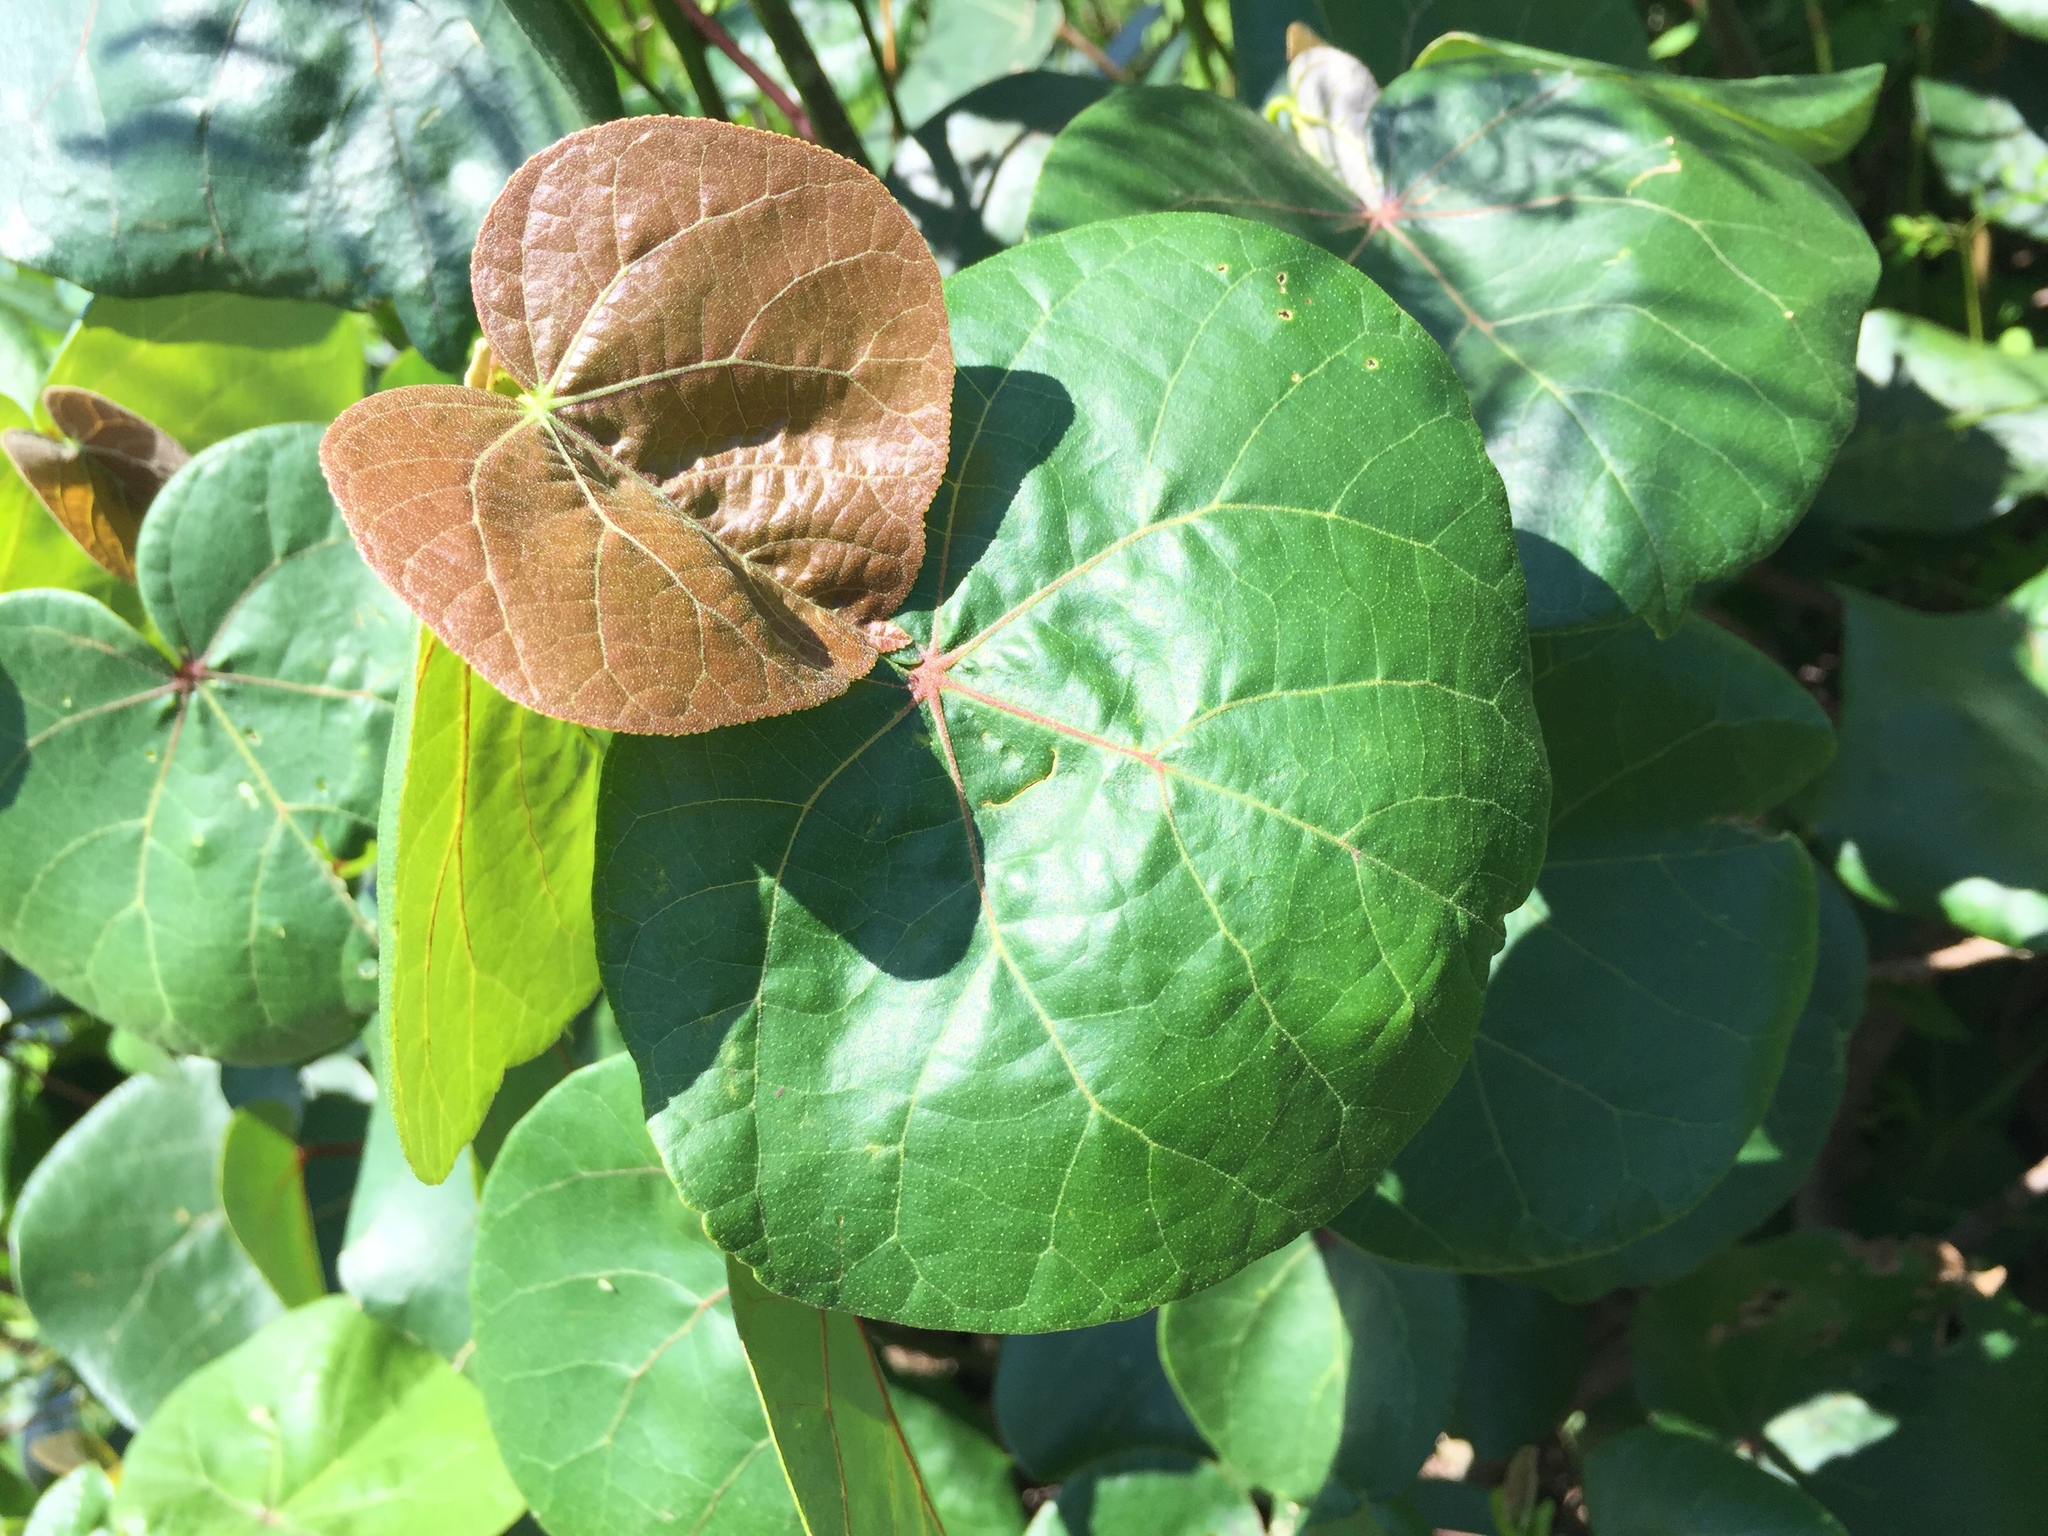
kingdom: Plantae
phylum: Tracheophyta
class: Magnoliopsida
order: Malvales
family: Malvaceae
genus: Talipariti
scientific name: Talipariti tiliaceum
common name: Sea hibiscus
